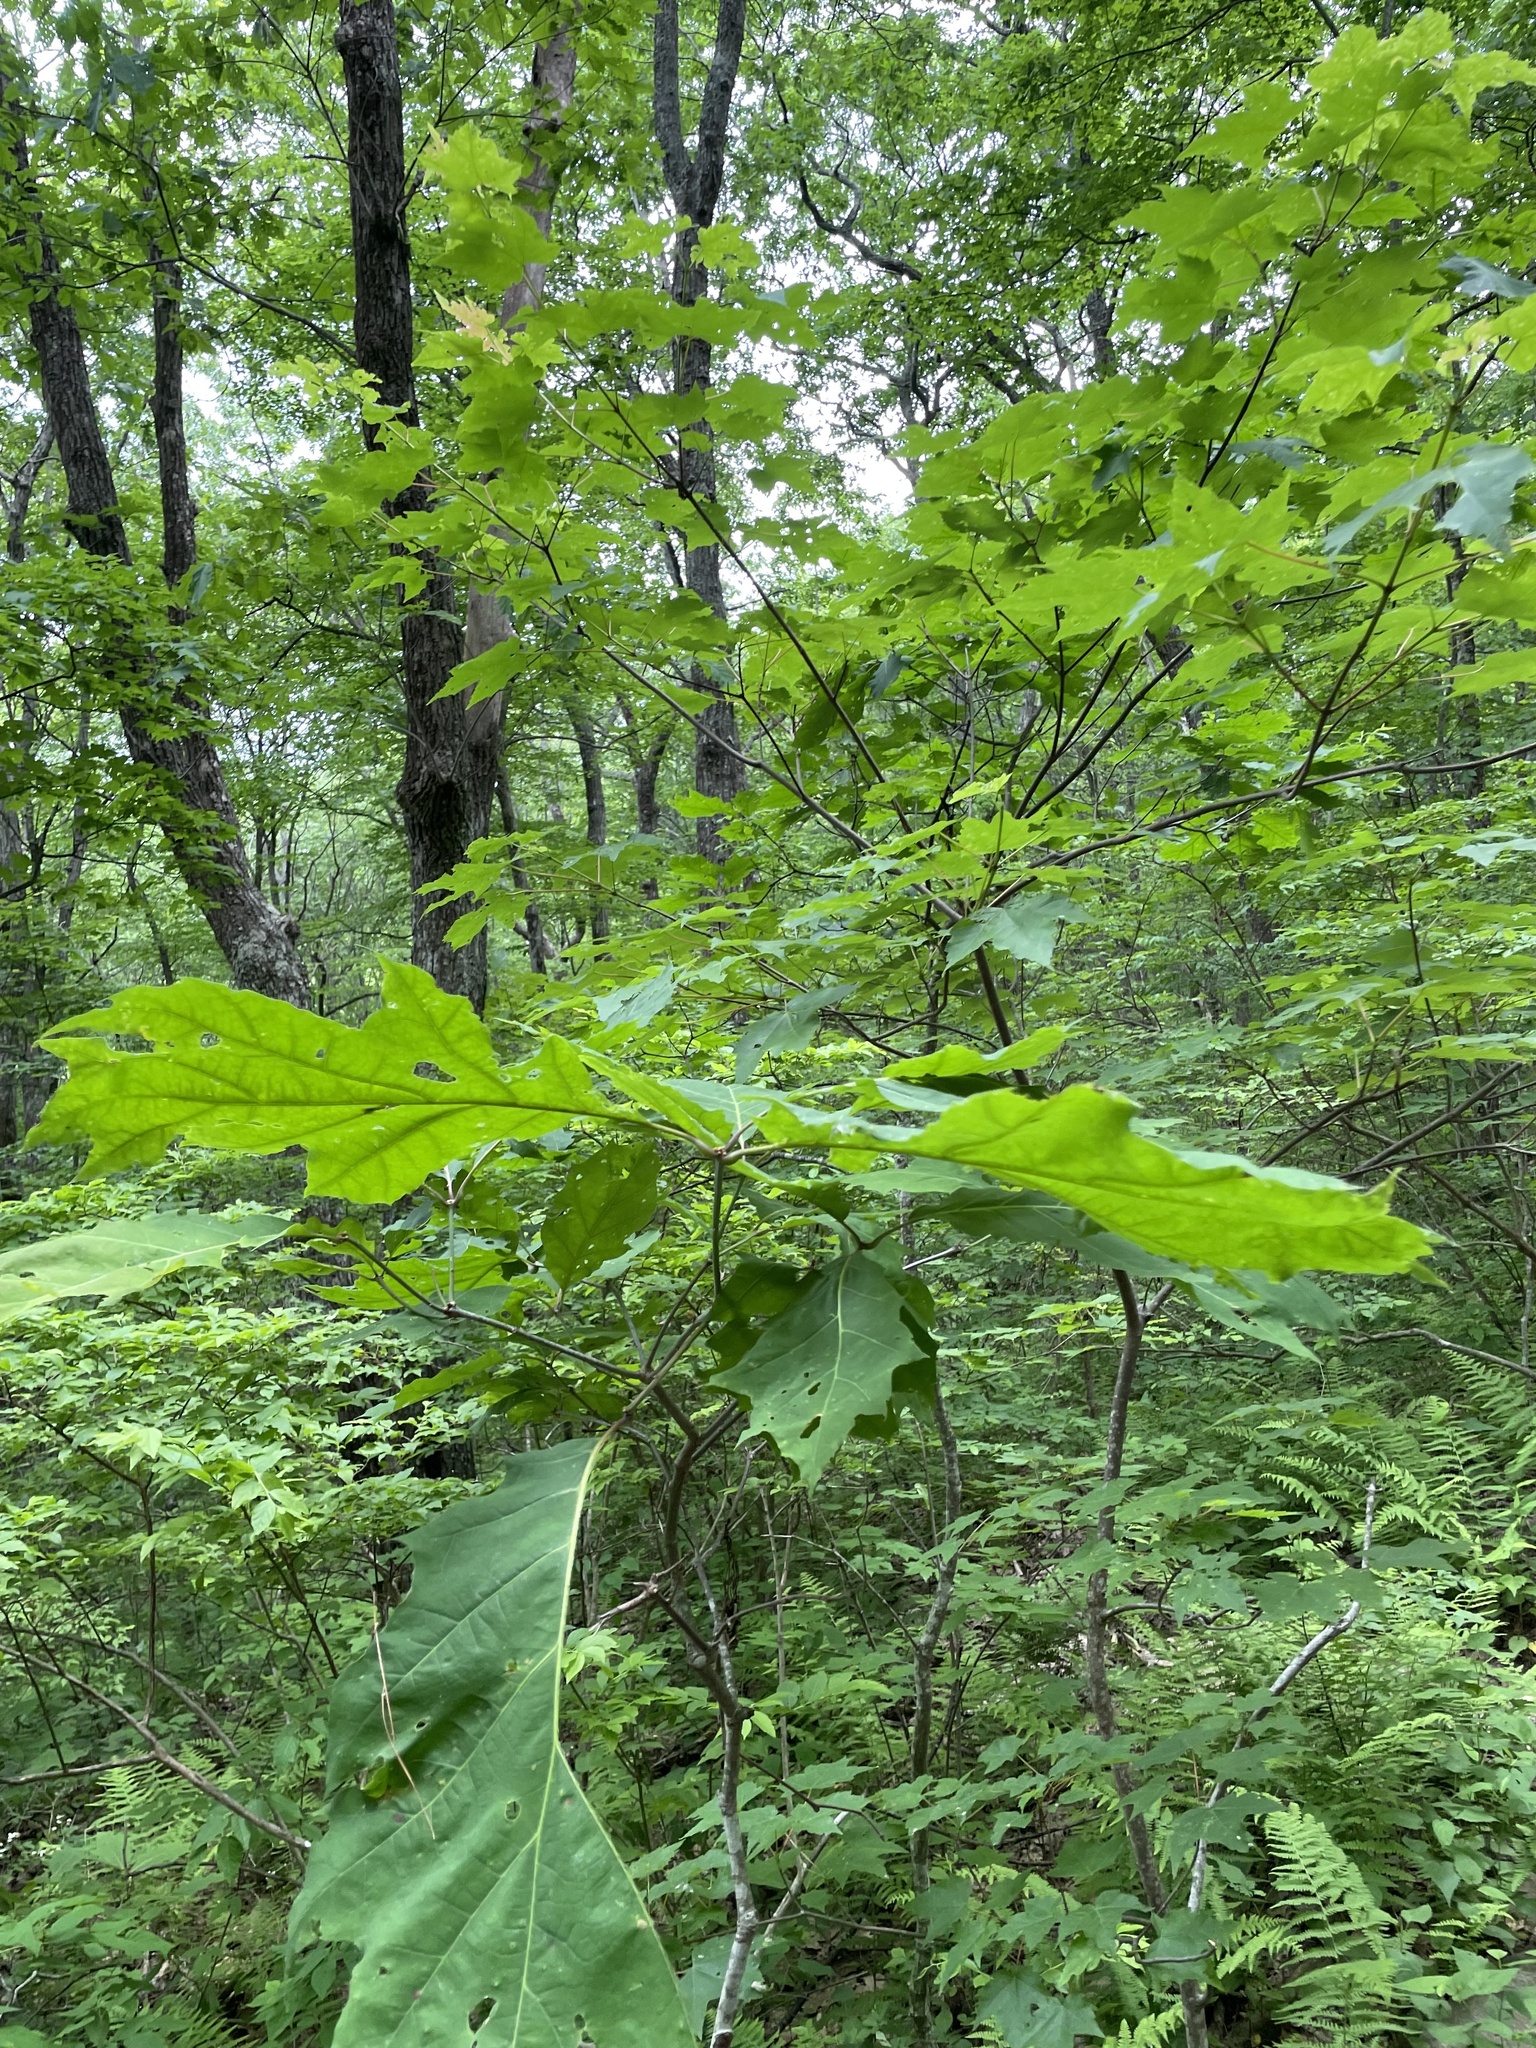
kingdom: Plantae
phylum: Tracheophyta
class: Magnoliopsida
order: Fagales
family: Fagaceae
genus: Quercus
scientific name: Quercus rubra
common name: Red oak
